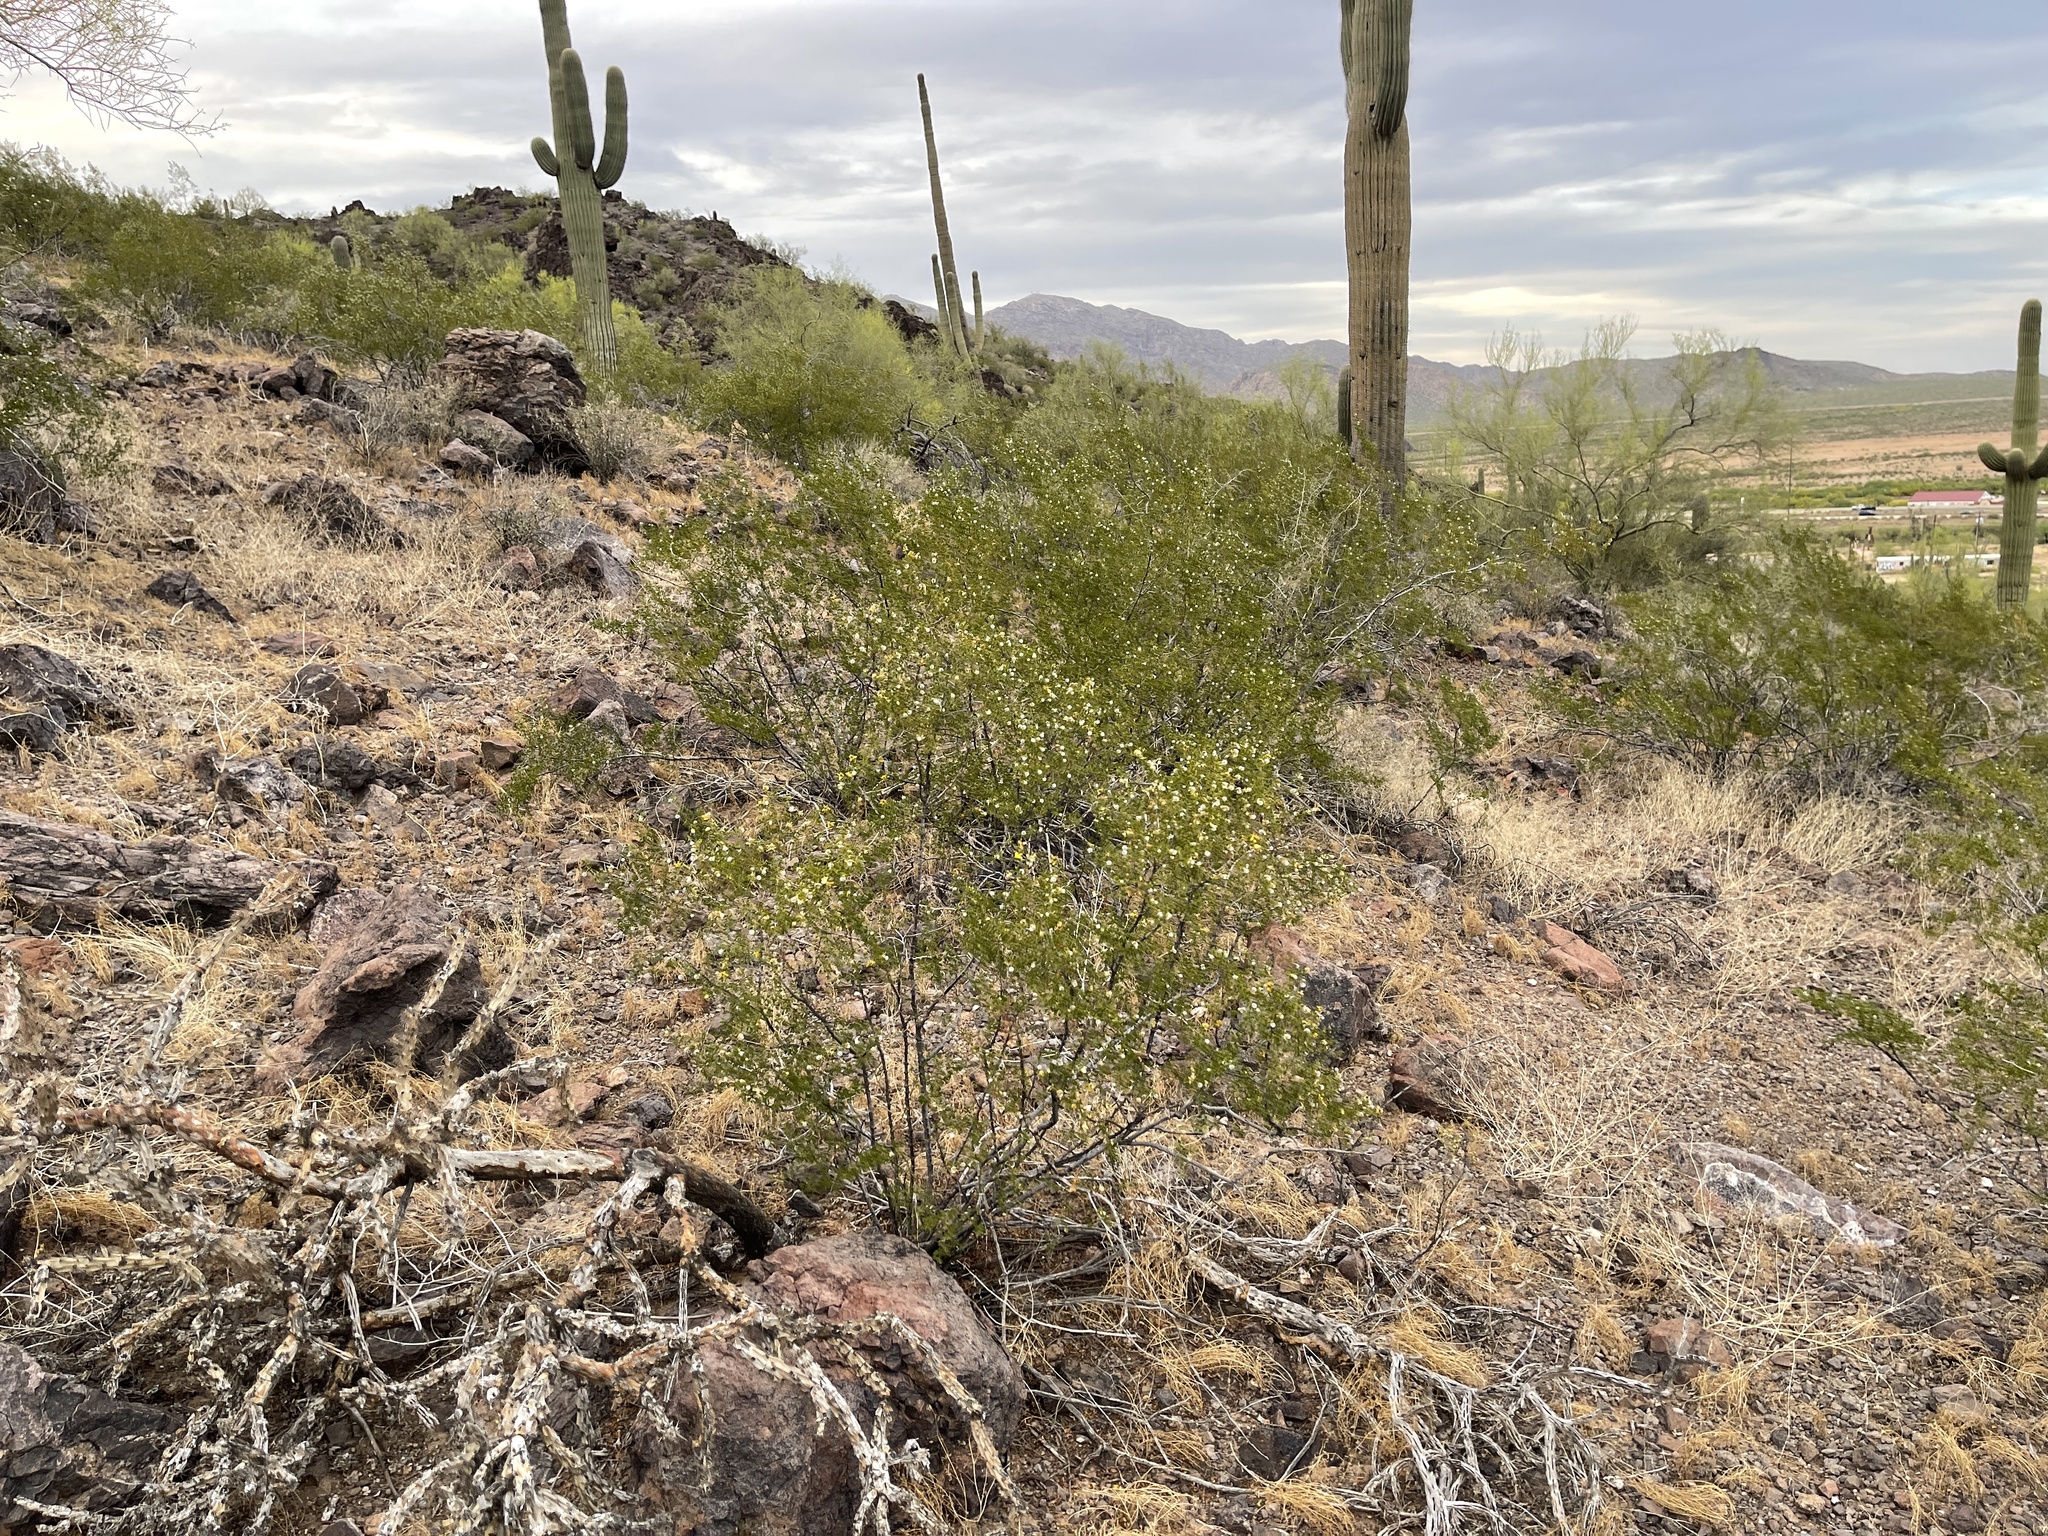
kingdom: Plantae
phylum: Tracheophyta
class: Magnoliopsida
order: Zygophyllales
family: Zygophyllaceae
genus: Larrea
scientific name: Larrea tridentata
